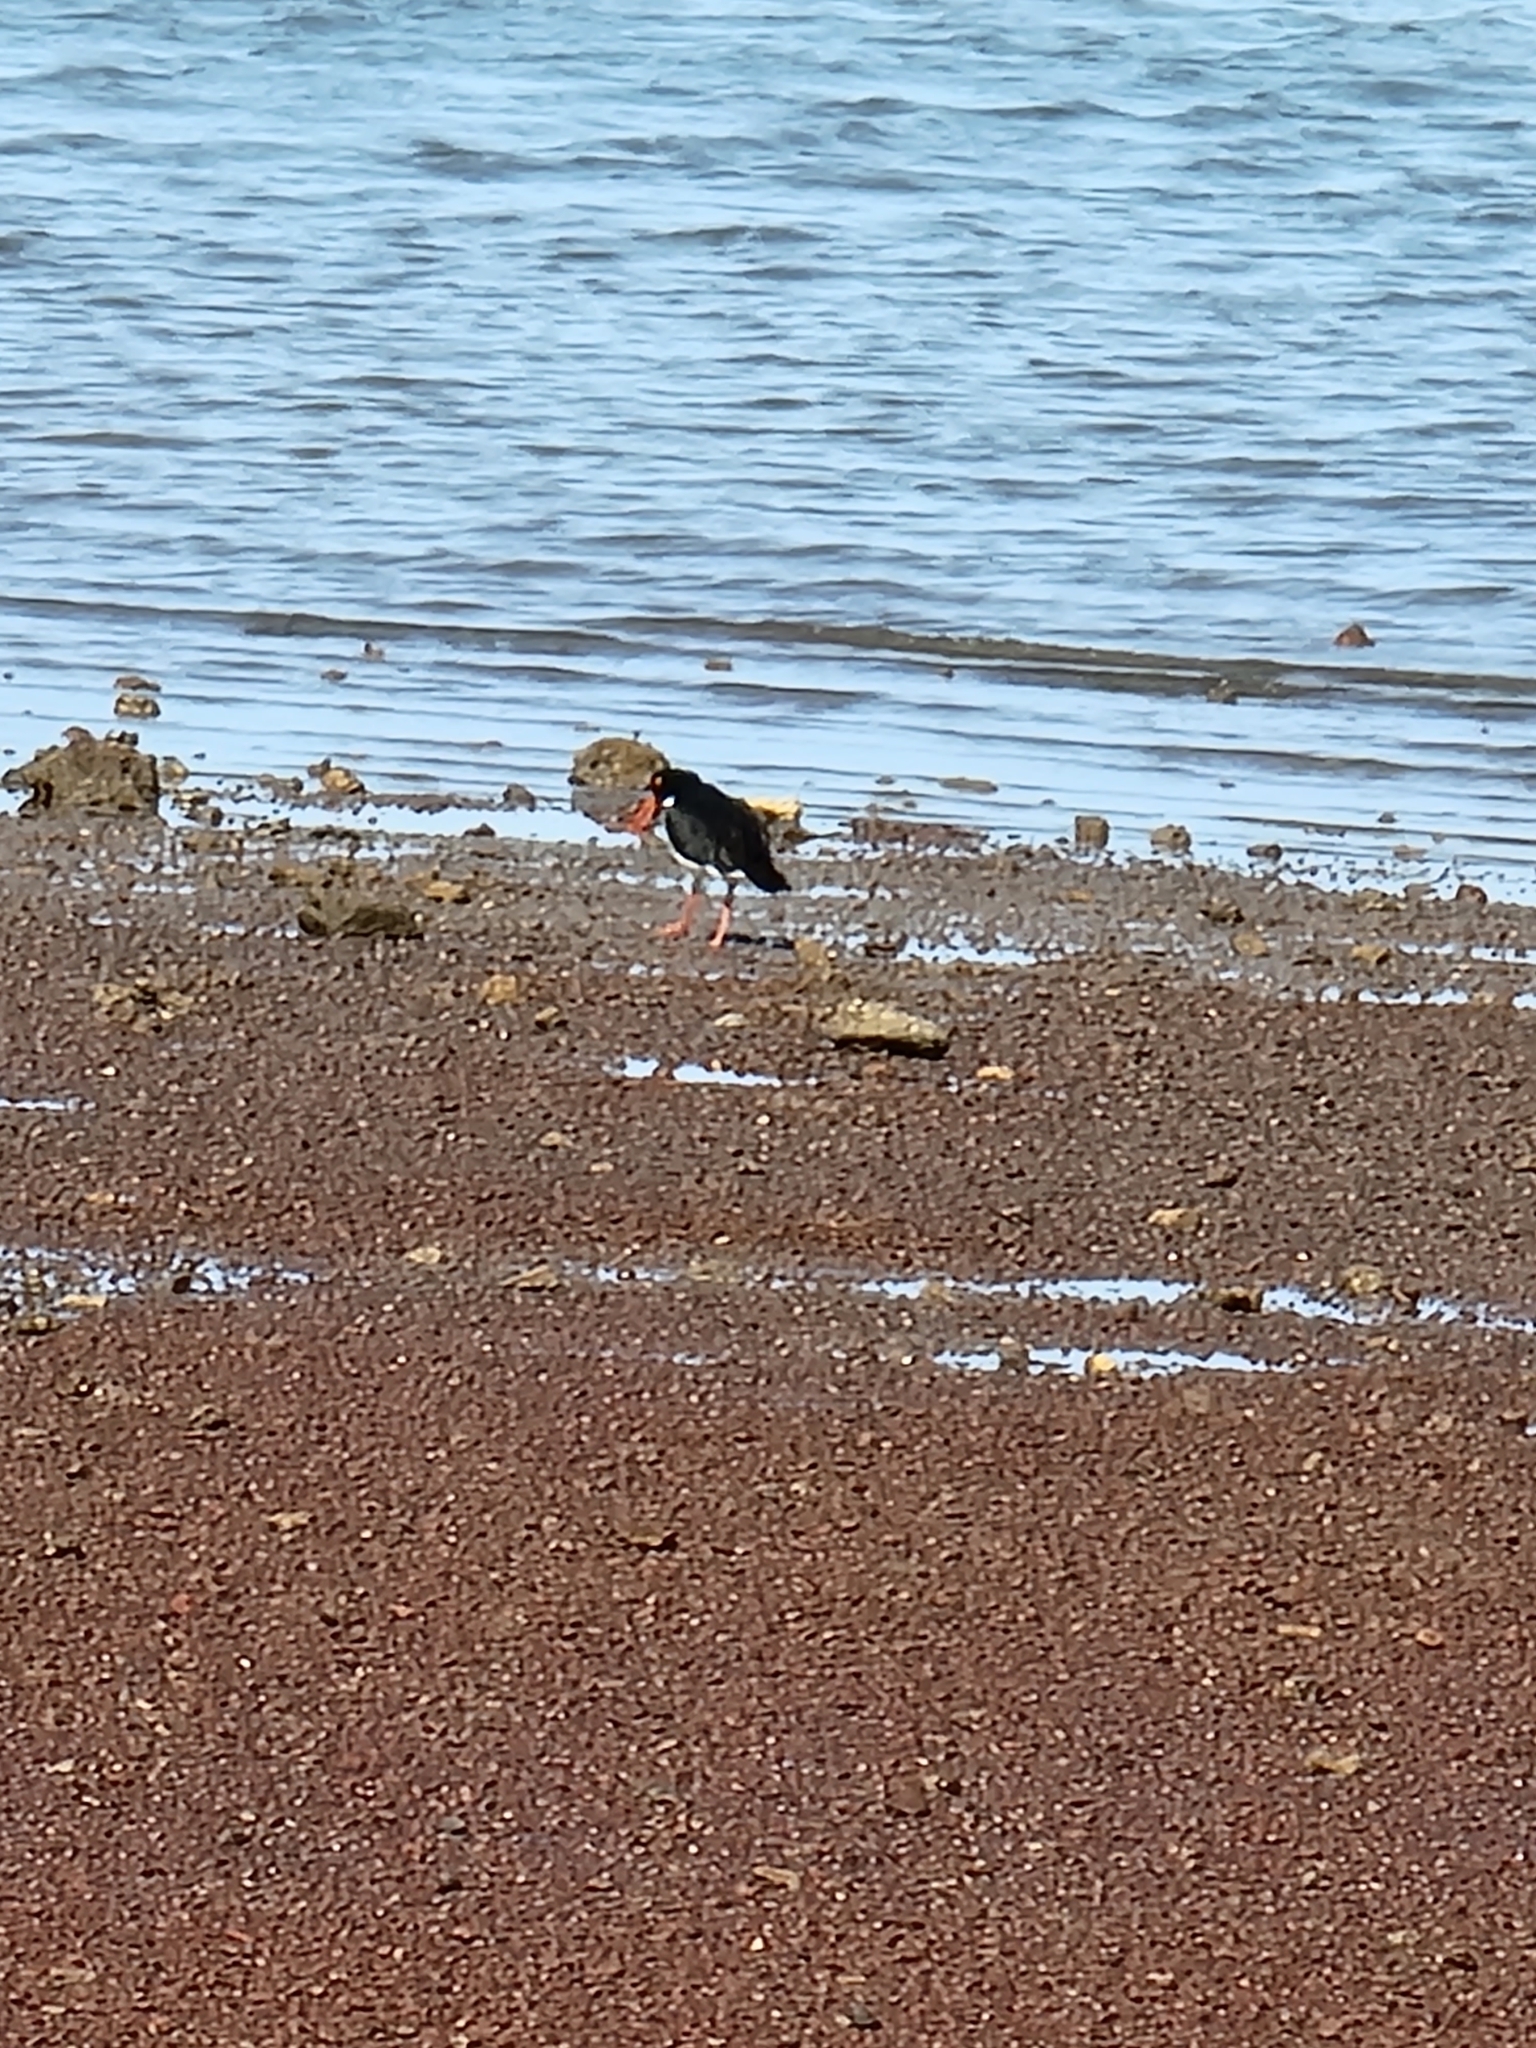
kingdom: Animalia
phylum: Chordata
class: Aves
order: Charadriiformes
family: Haematopodidae
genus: Haematopus
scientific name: Haematopus longirostris
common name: Pied oystercatcher
